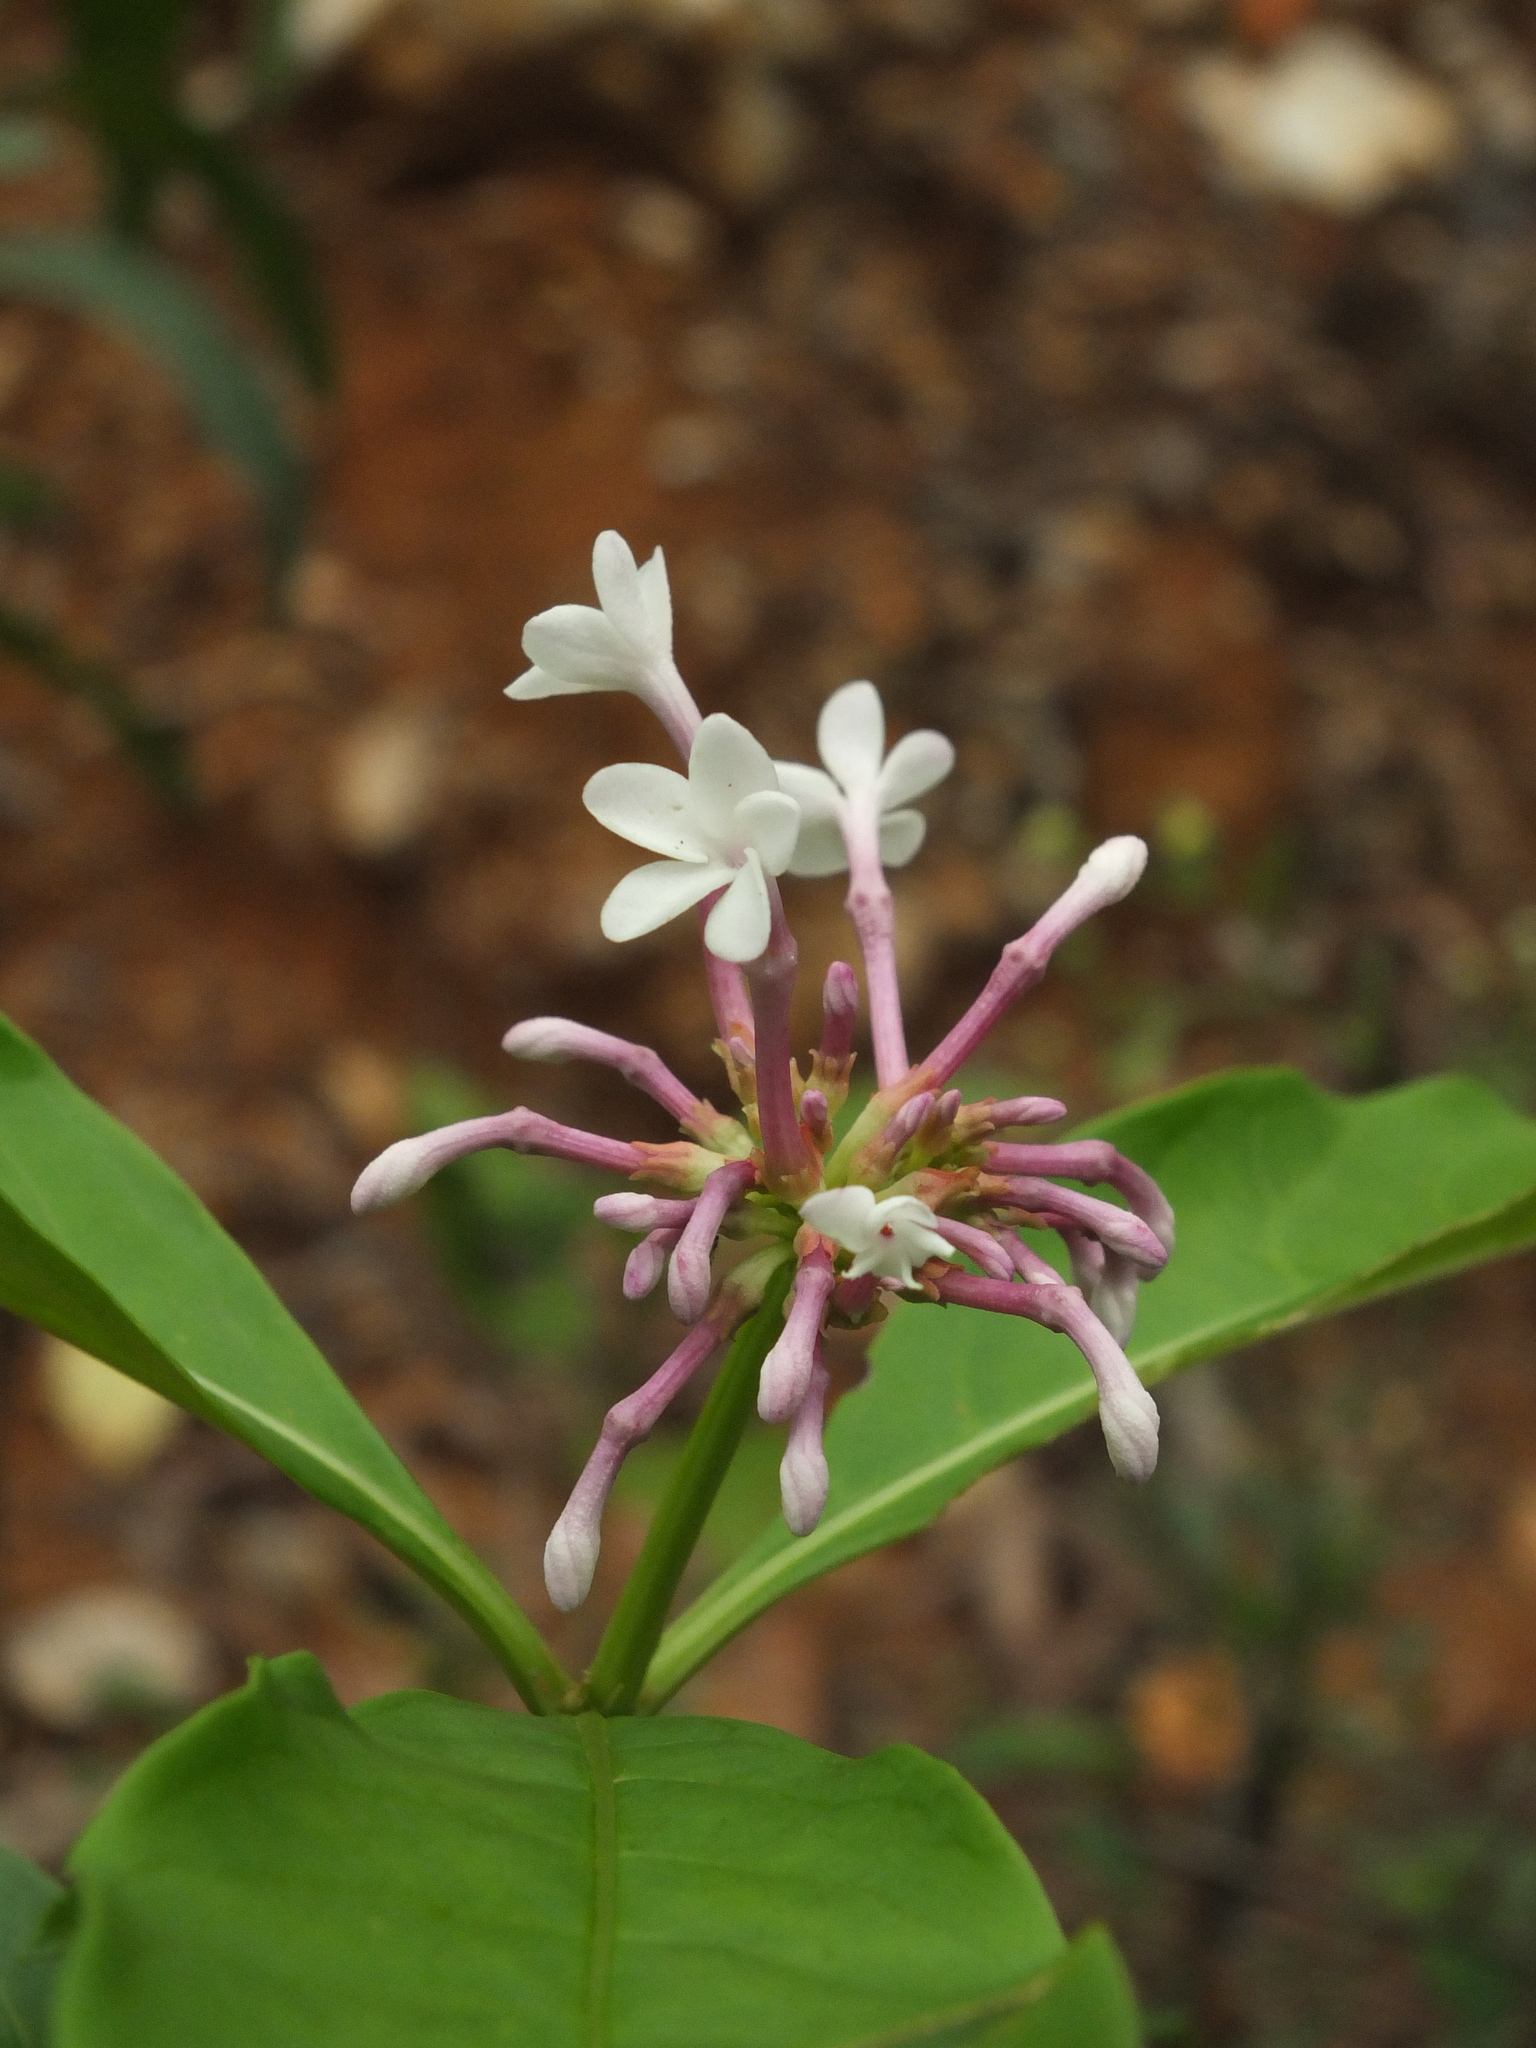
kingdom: Plantae
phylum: Tracheophyta
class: Magnoliopsida
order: Gentianales
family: Apocynaceae
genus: Rauvolfia
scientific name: Rauvolfia serpentina
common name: Ajmaline
